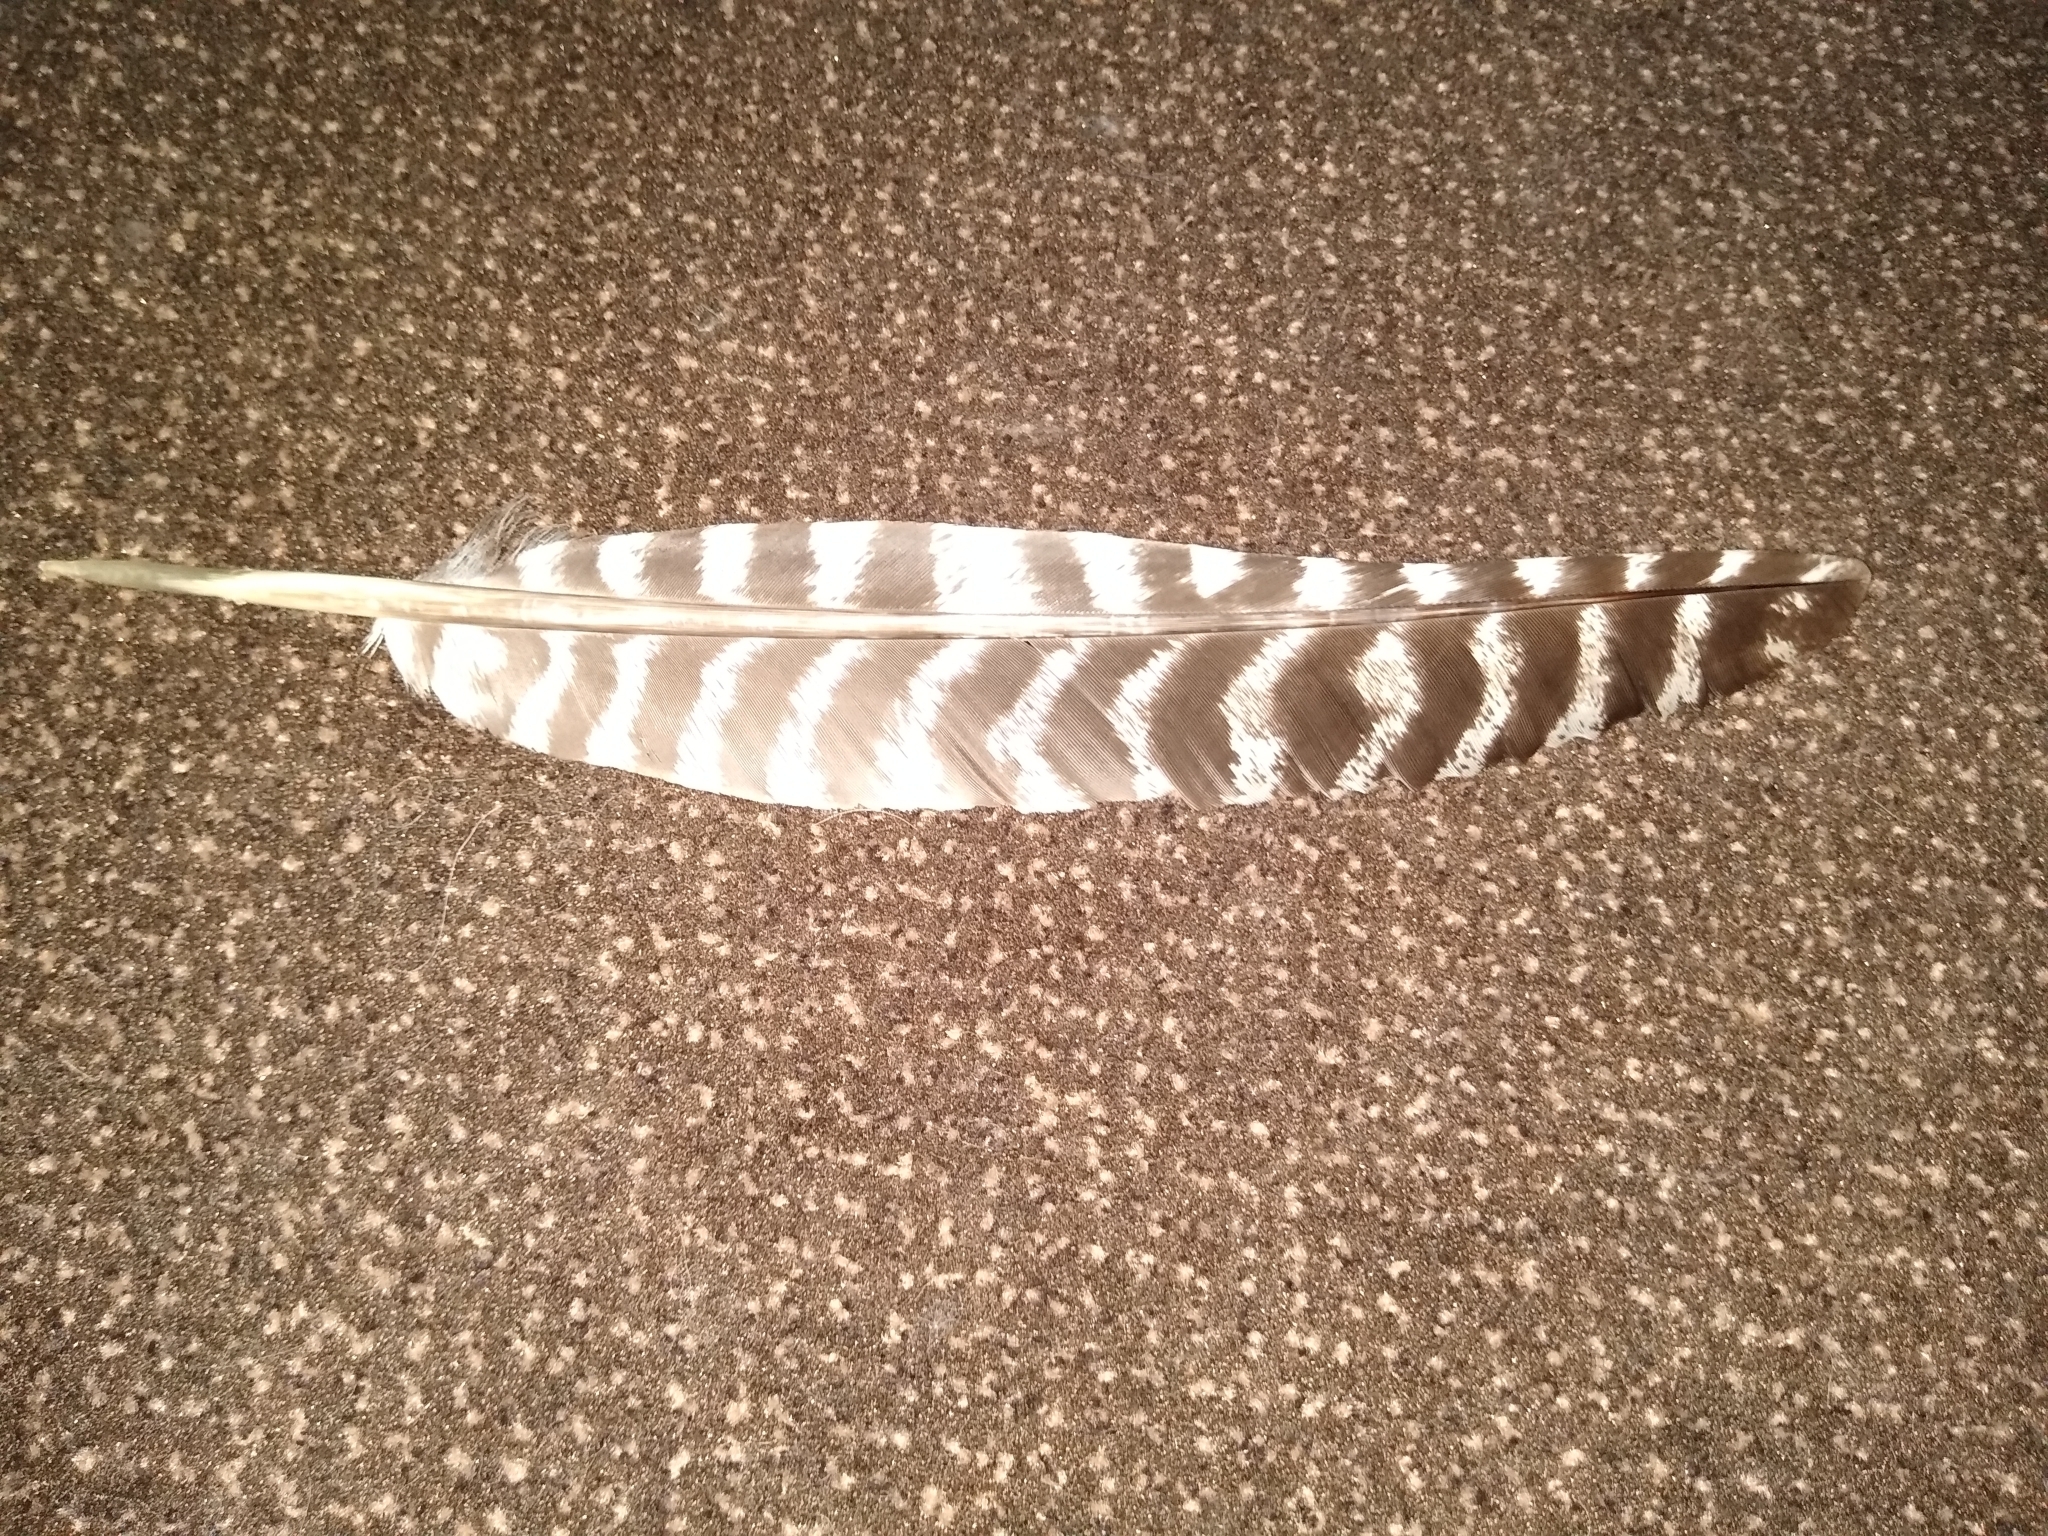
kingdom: Animalia
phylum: Chordata
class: Aves
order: Galliformes
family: Phasianidae
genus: Meleagris
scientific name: Meleagris gallopavo
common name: Wild turkey
